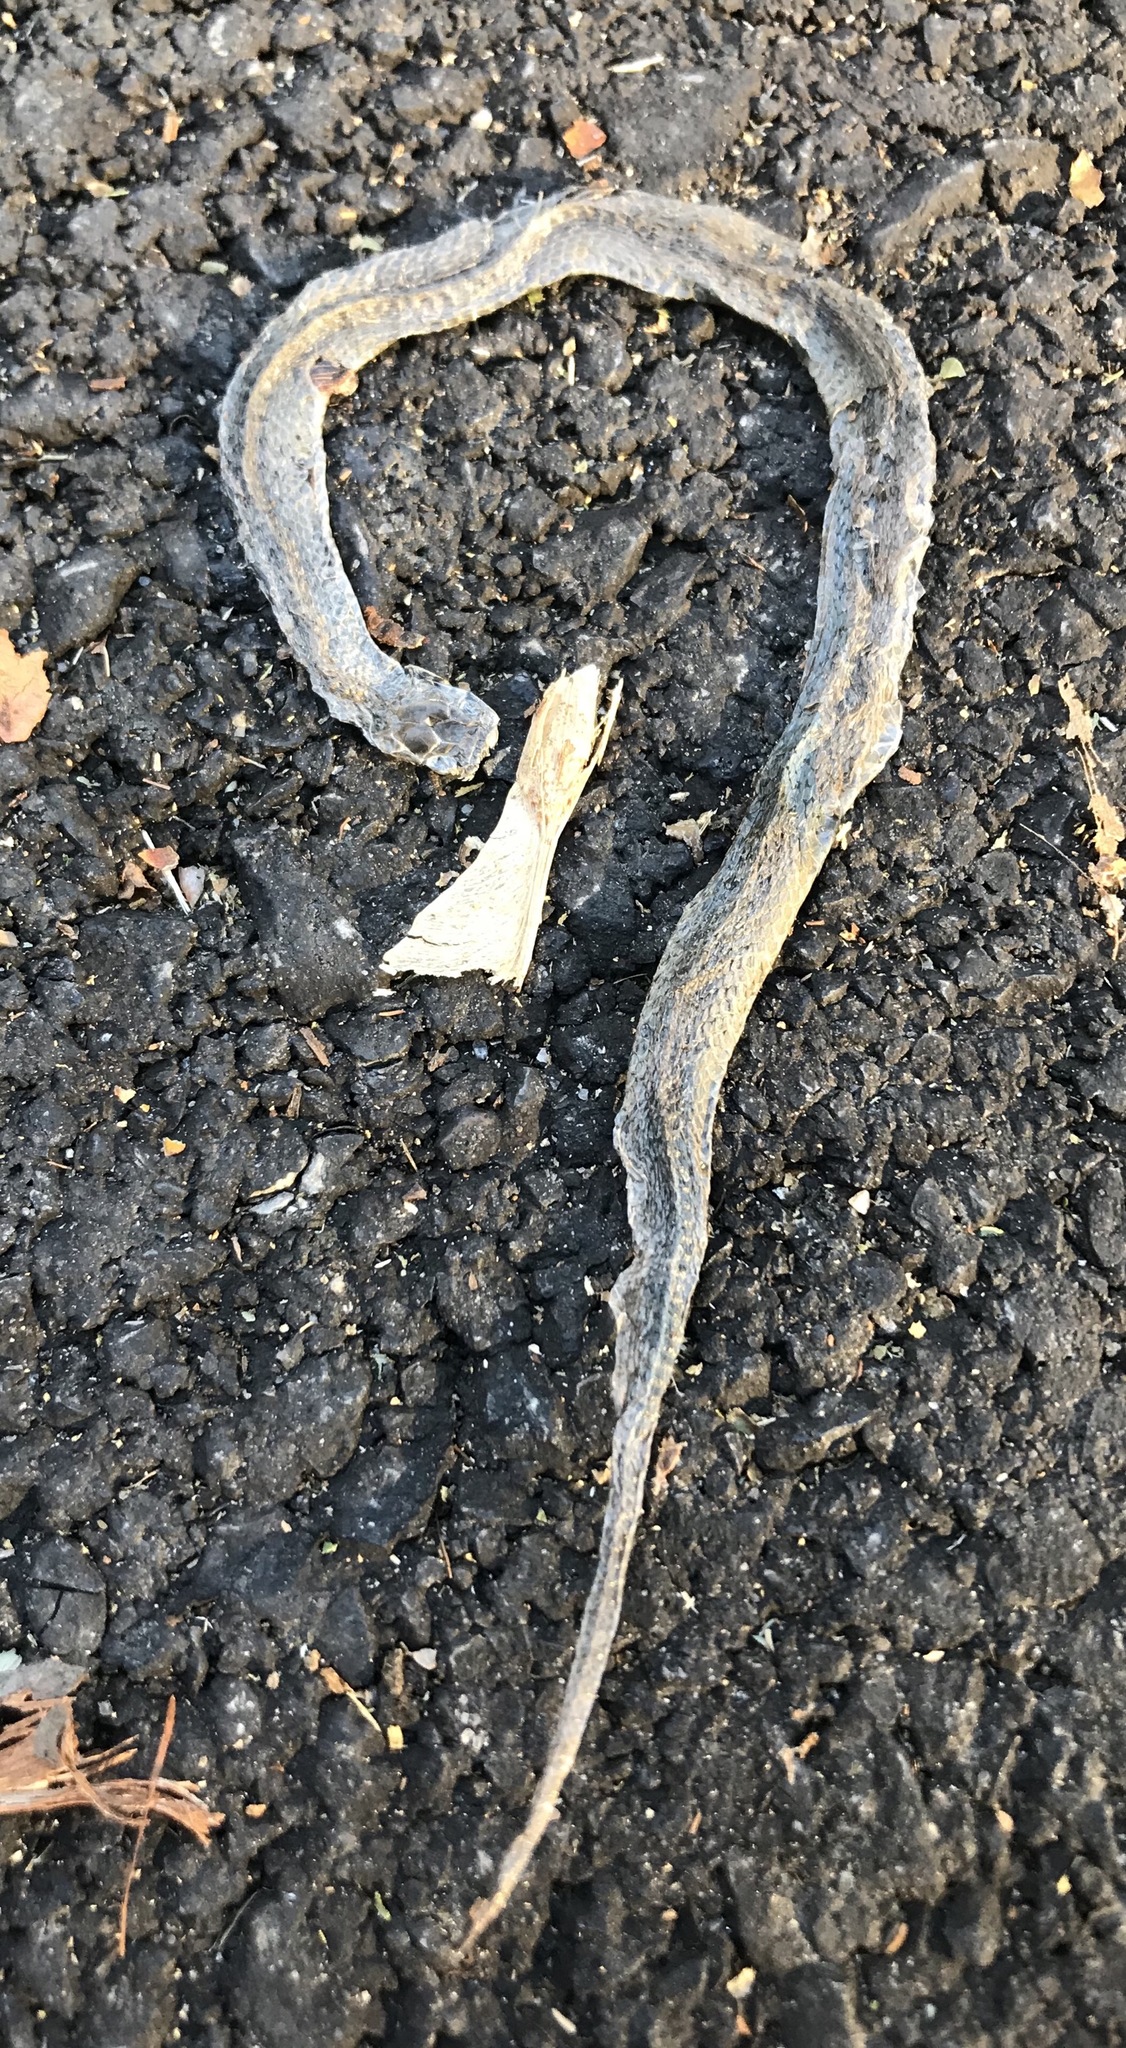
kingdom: Animalia
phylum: Chordata
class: Squamata
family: Colubridae
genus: Storeria
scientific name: Storeria dekayi
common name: (dekay’s) brown snake
